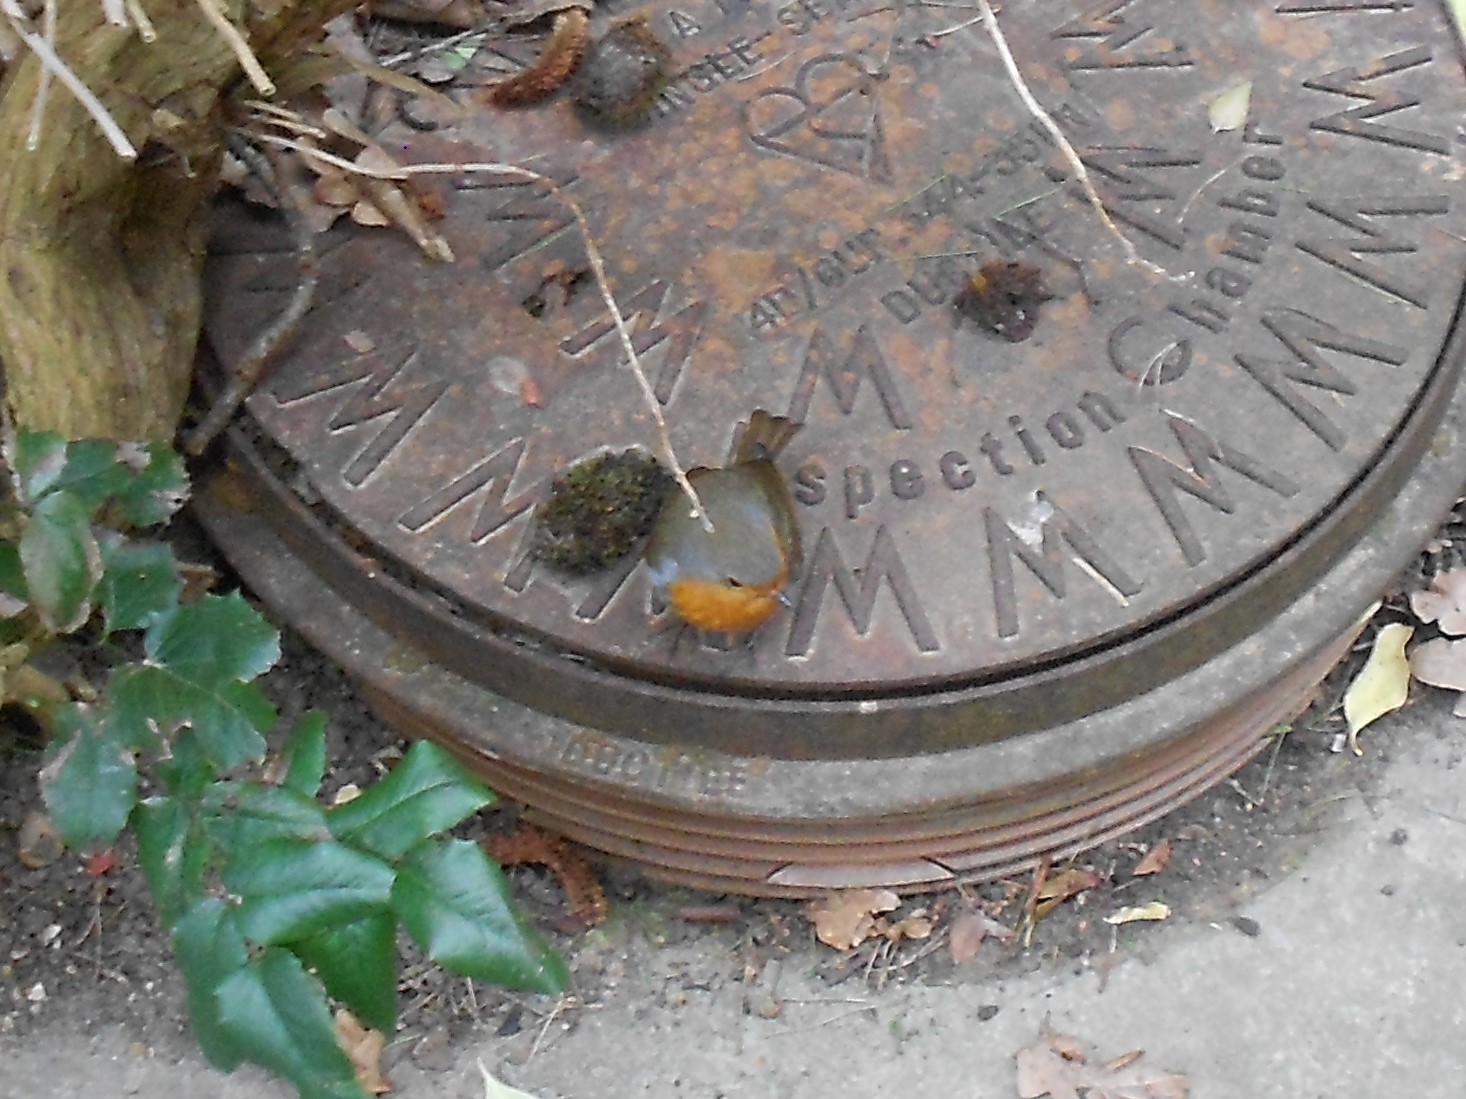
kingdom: Animalia
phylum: Chordata
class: Aves
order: Passeriformes
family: Muscicapidae
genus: Erithacus
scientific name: Erithacus rubecula
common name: European robin
